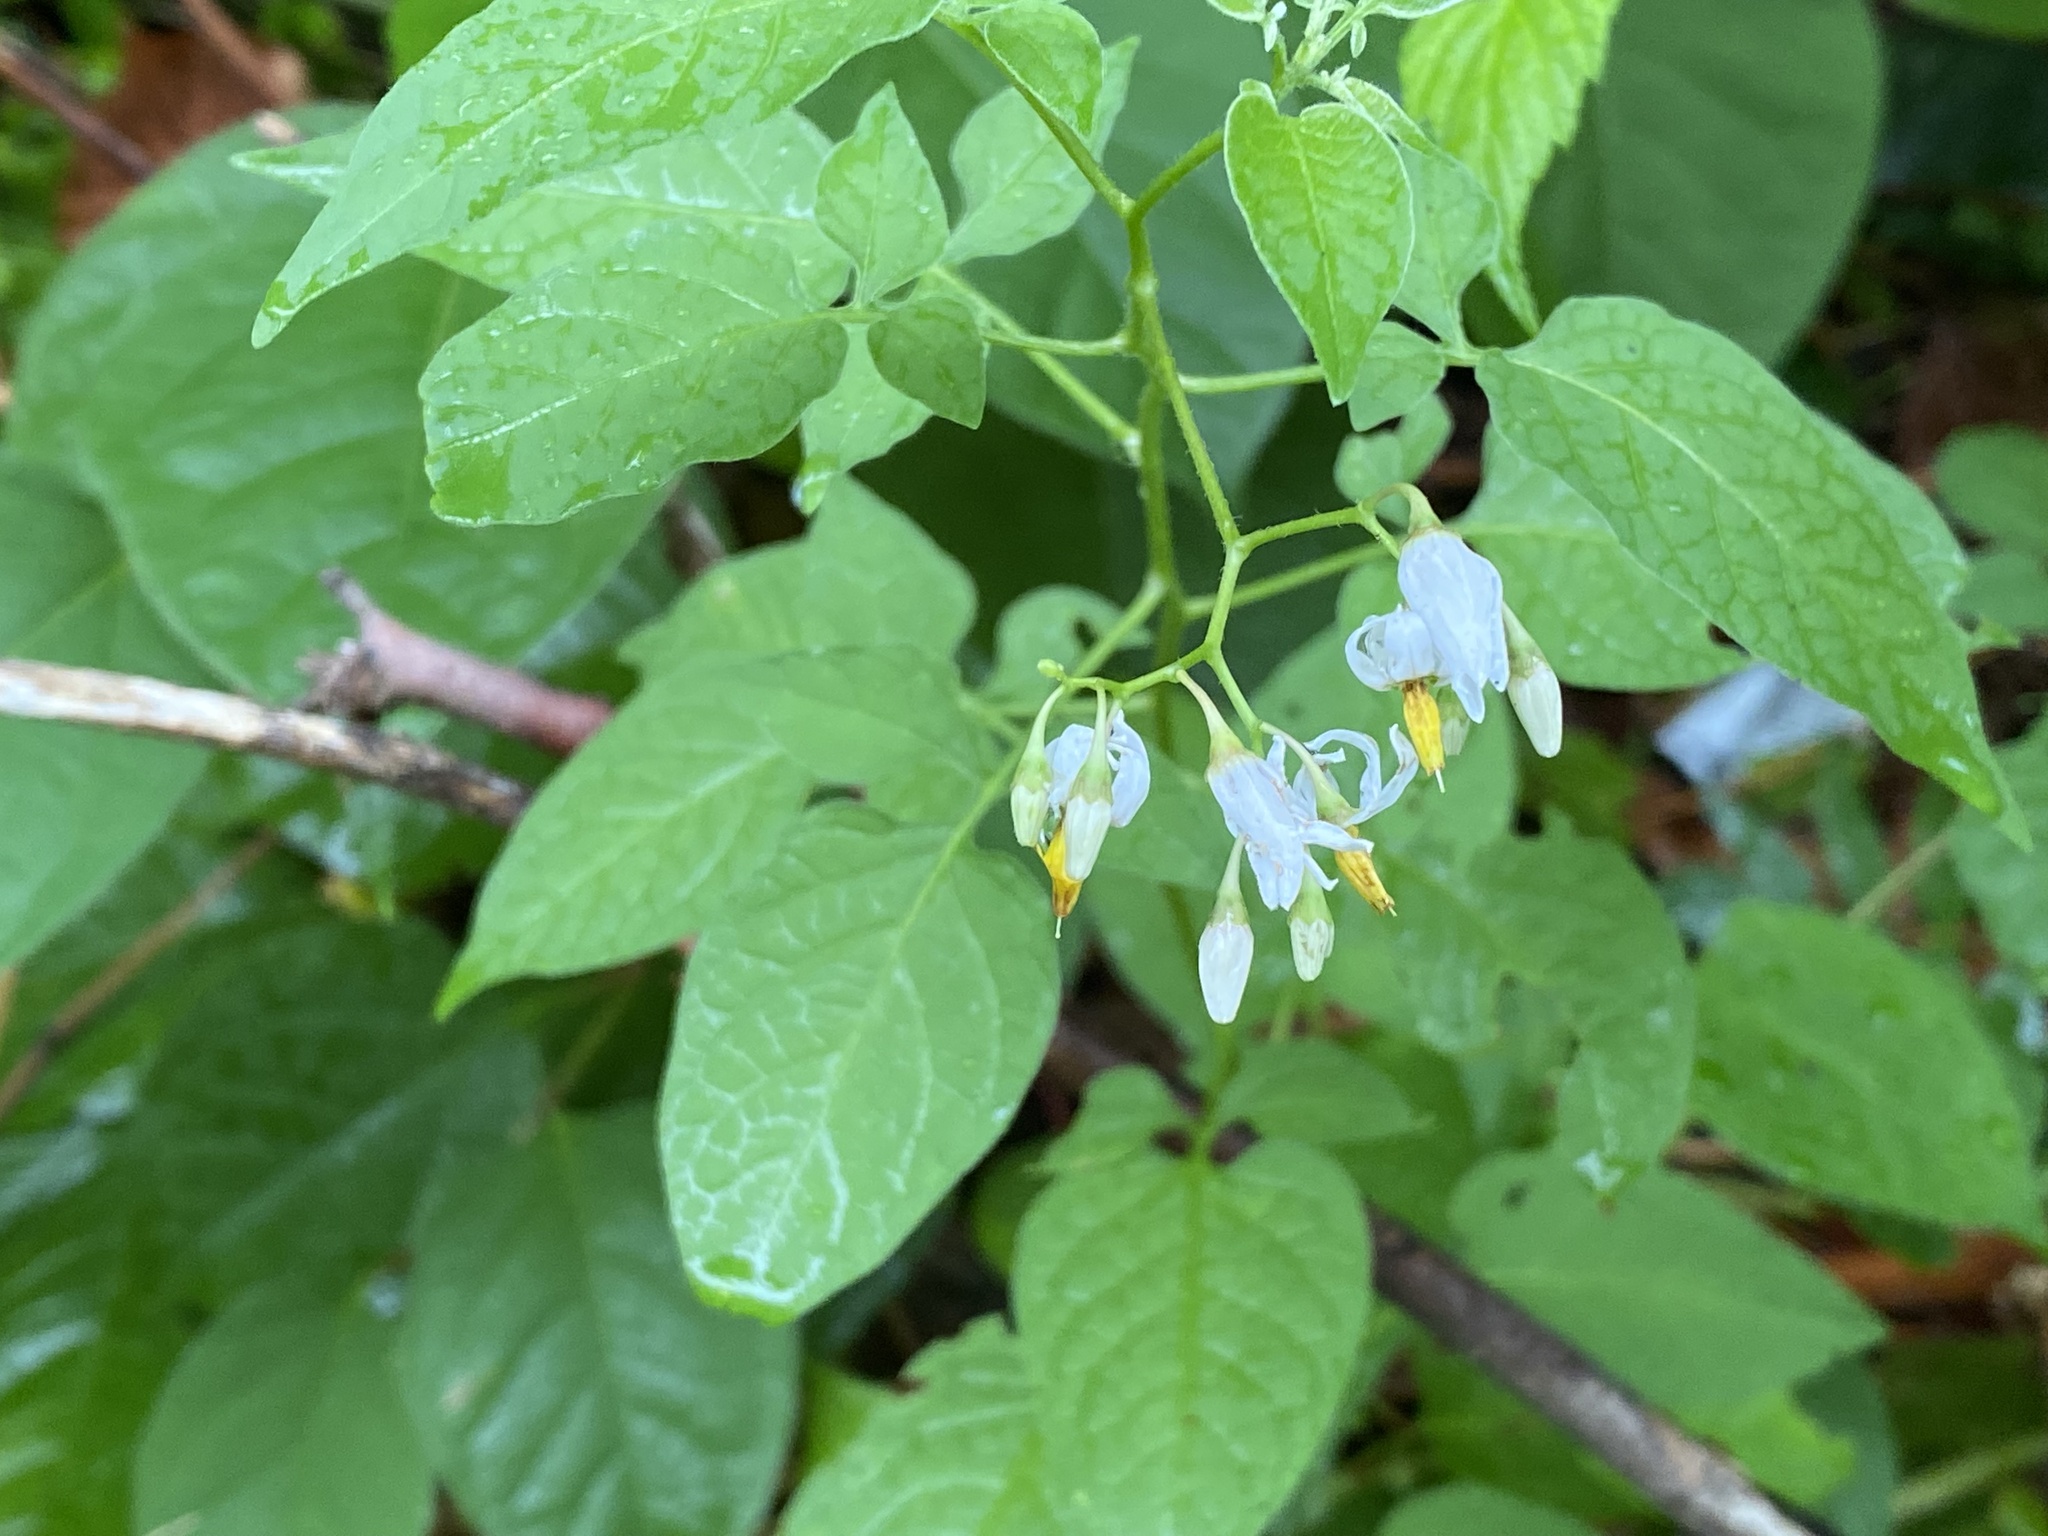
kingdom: Plantae
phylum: Tracheophyta
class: Magnoliopsida
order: Solanales
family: Solanaceae
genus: Solanum
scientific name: Solanum dulcamara
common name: Climbing nightshade
